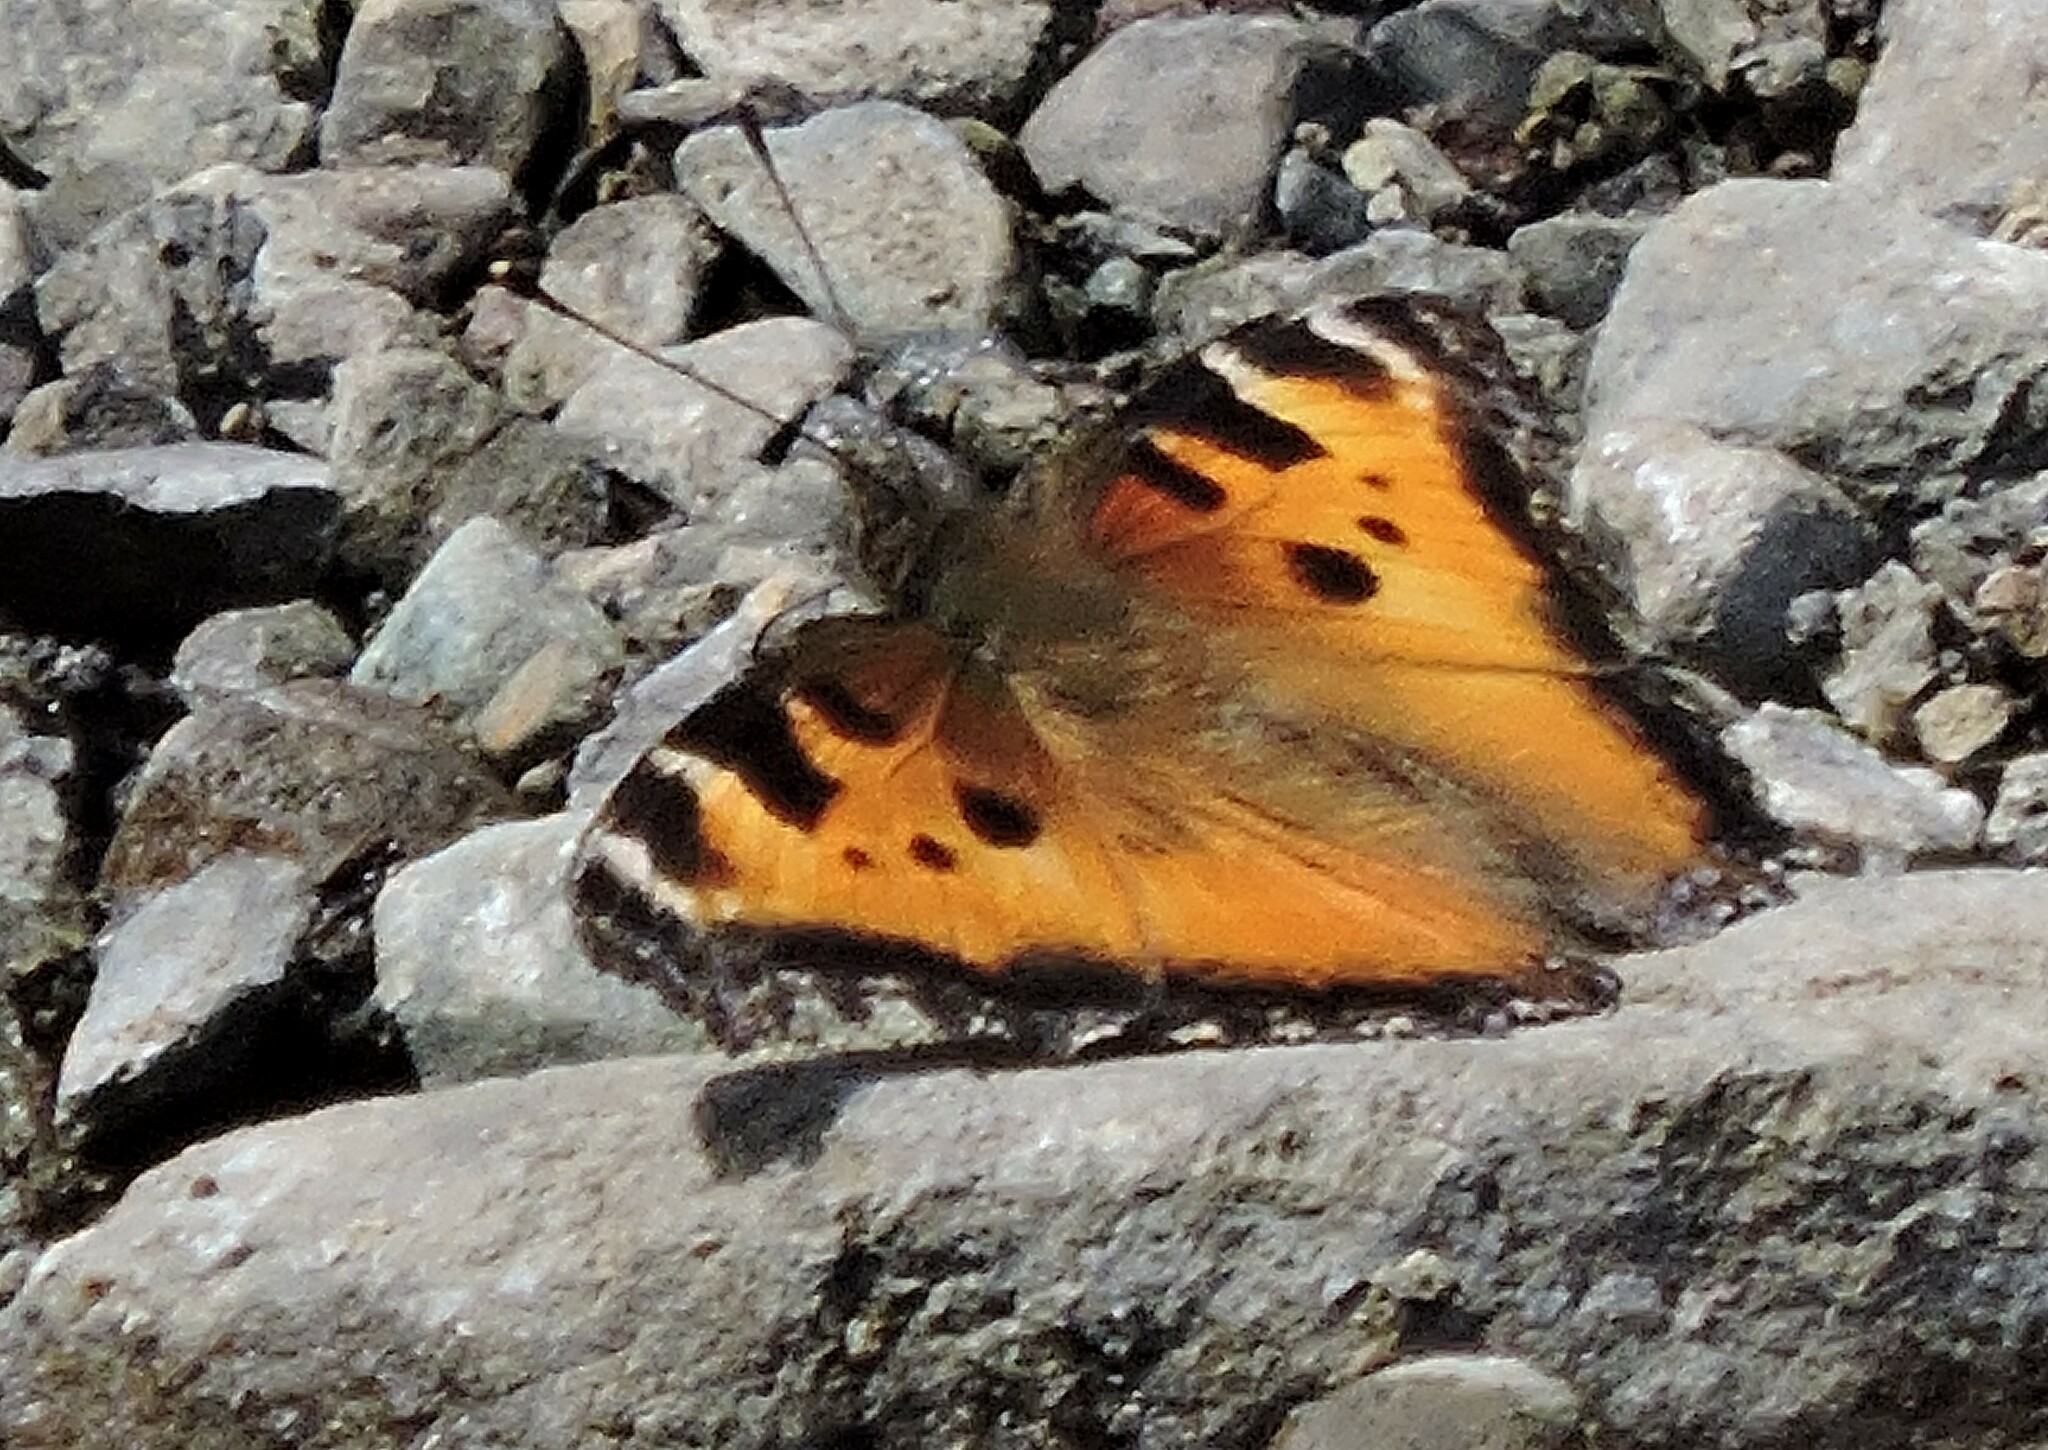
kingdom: Animalia
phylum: Arthropoda
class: Insecta
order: Lepidoptera
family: Nymphalidae
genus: Nymphalis
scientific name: Nymphalis californica
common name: California tortoiseshell
